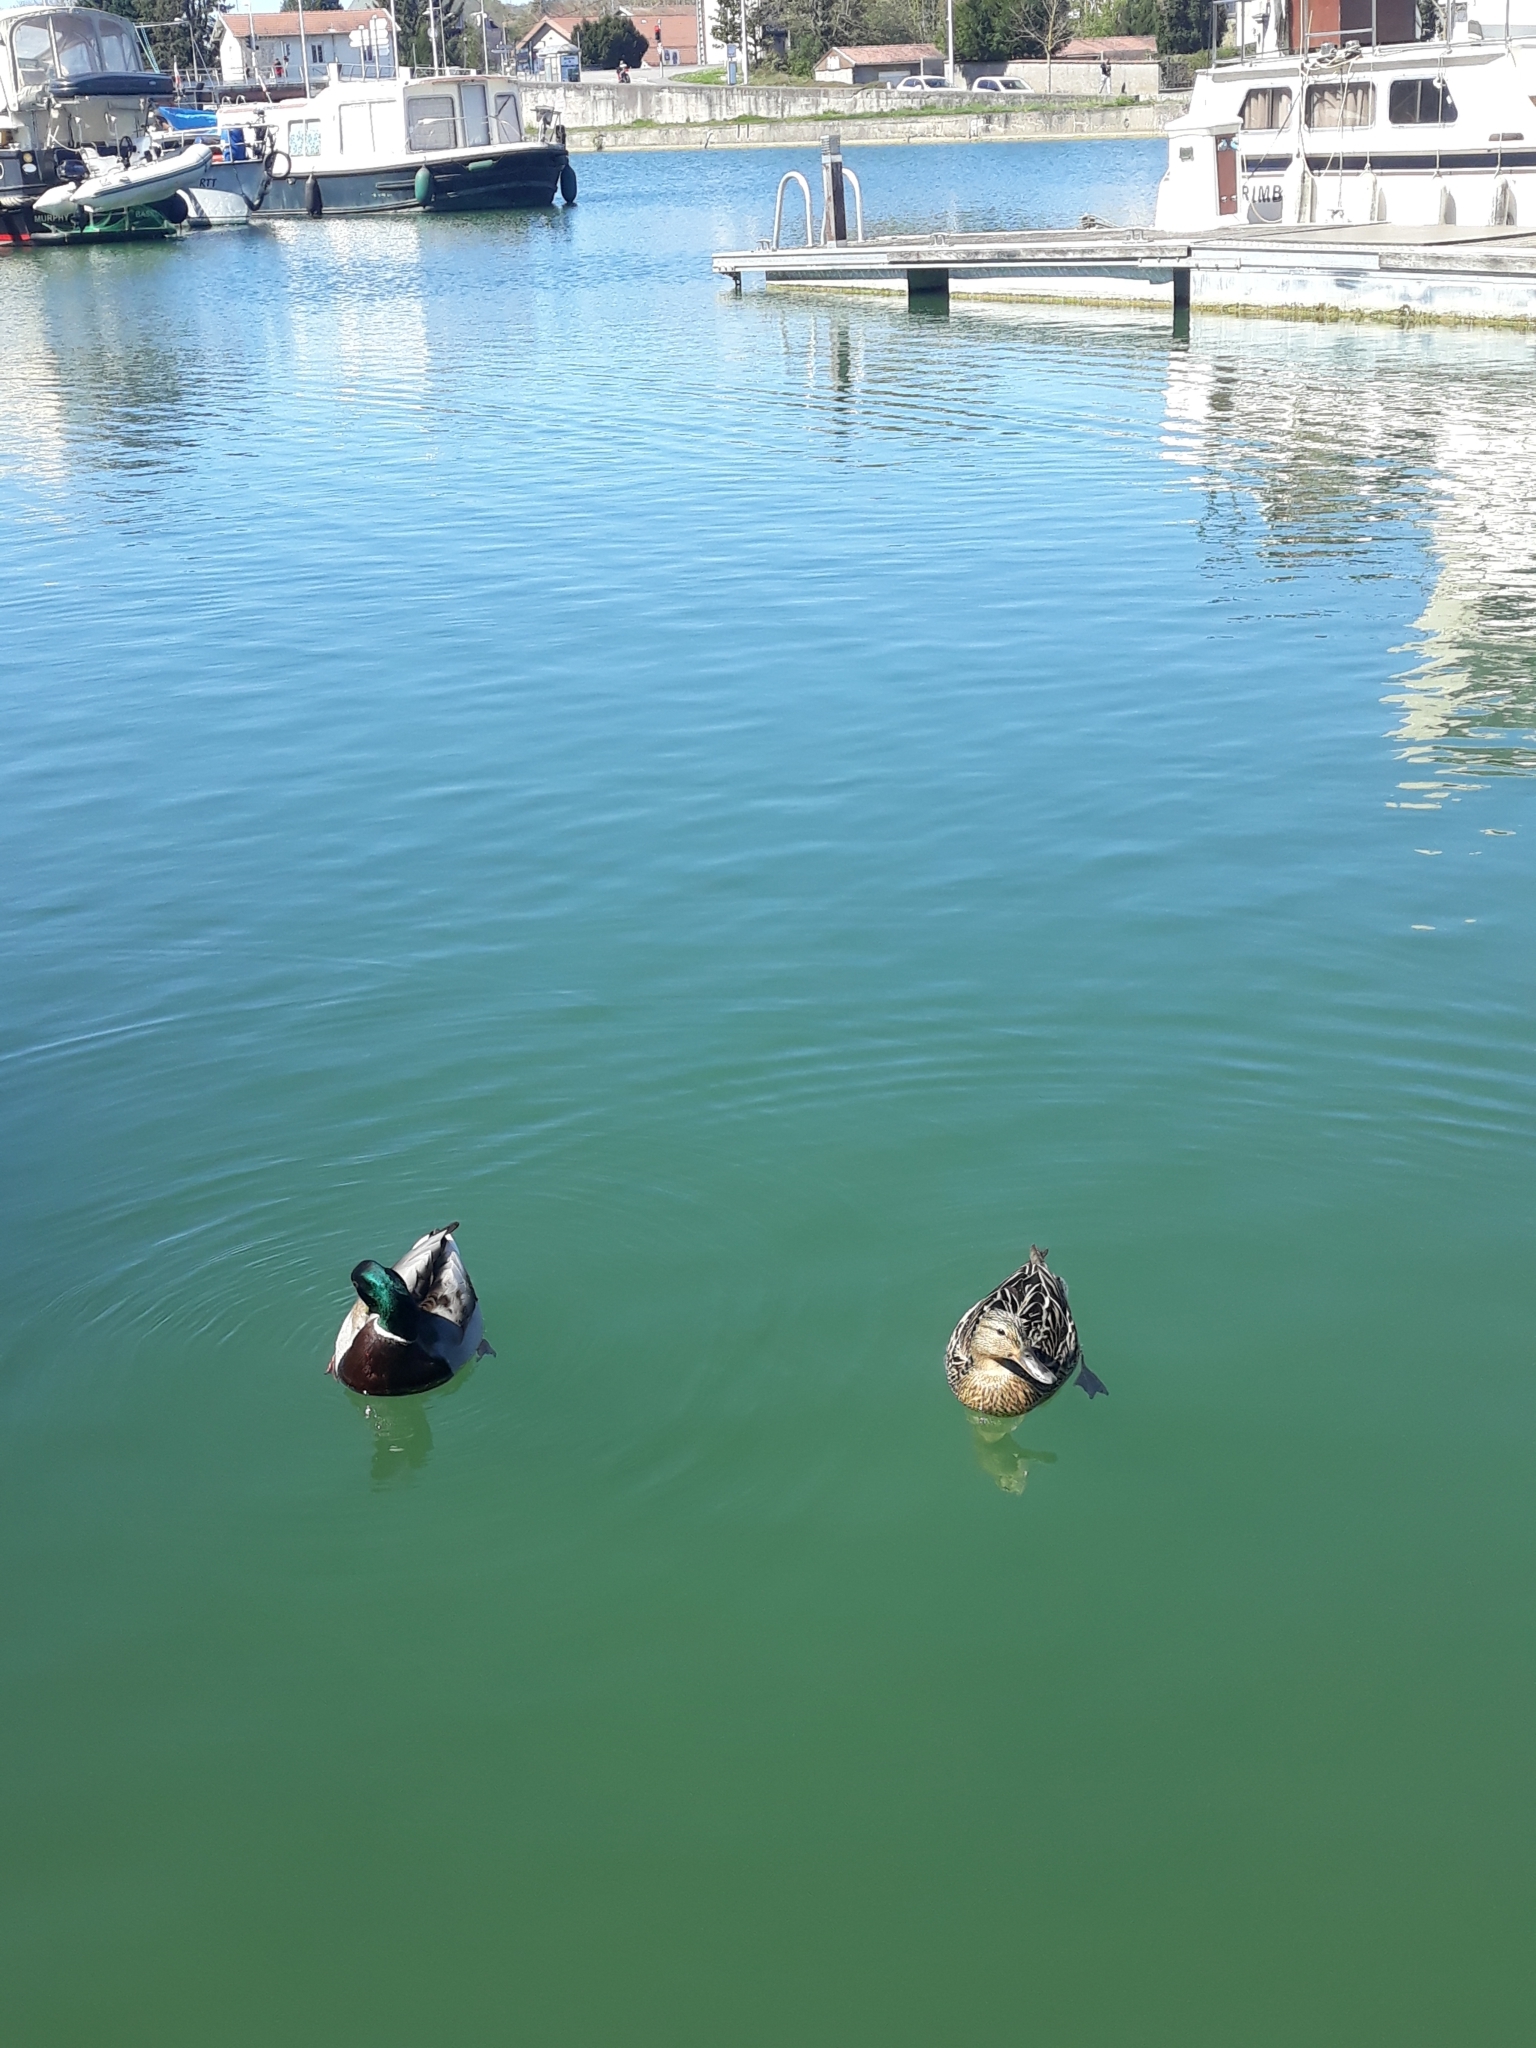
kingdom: Animalia
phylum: Chordata
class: Aves
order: Anseriformes
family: Anatidae
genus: Anas
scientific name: Anas platyrhynchos
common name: Mallard
